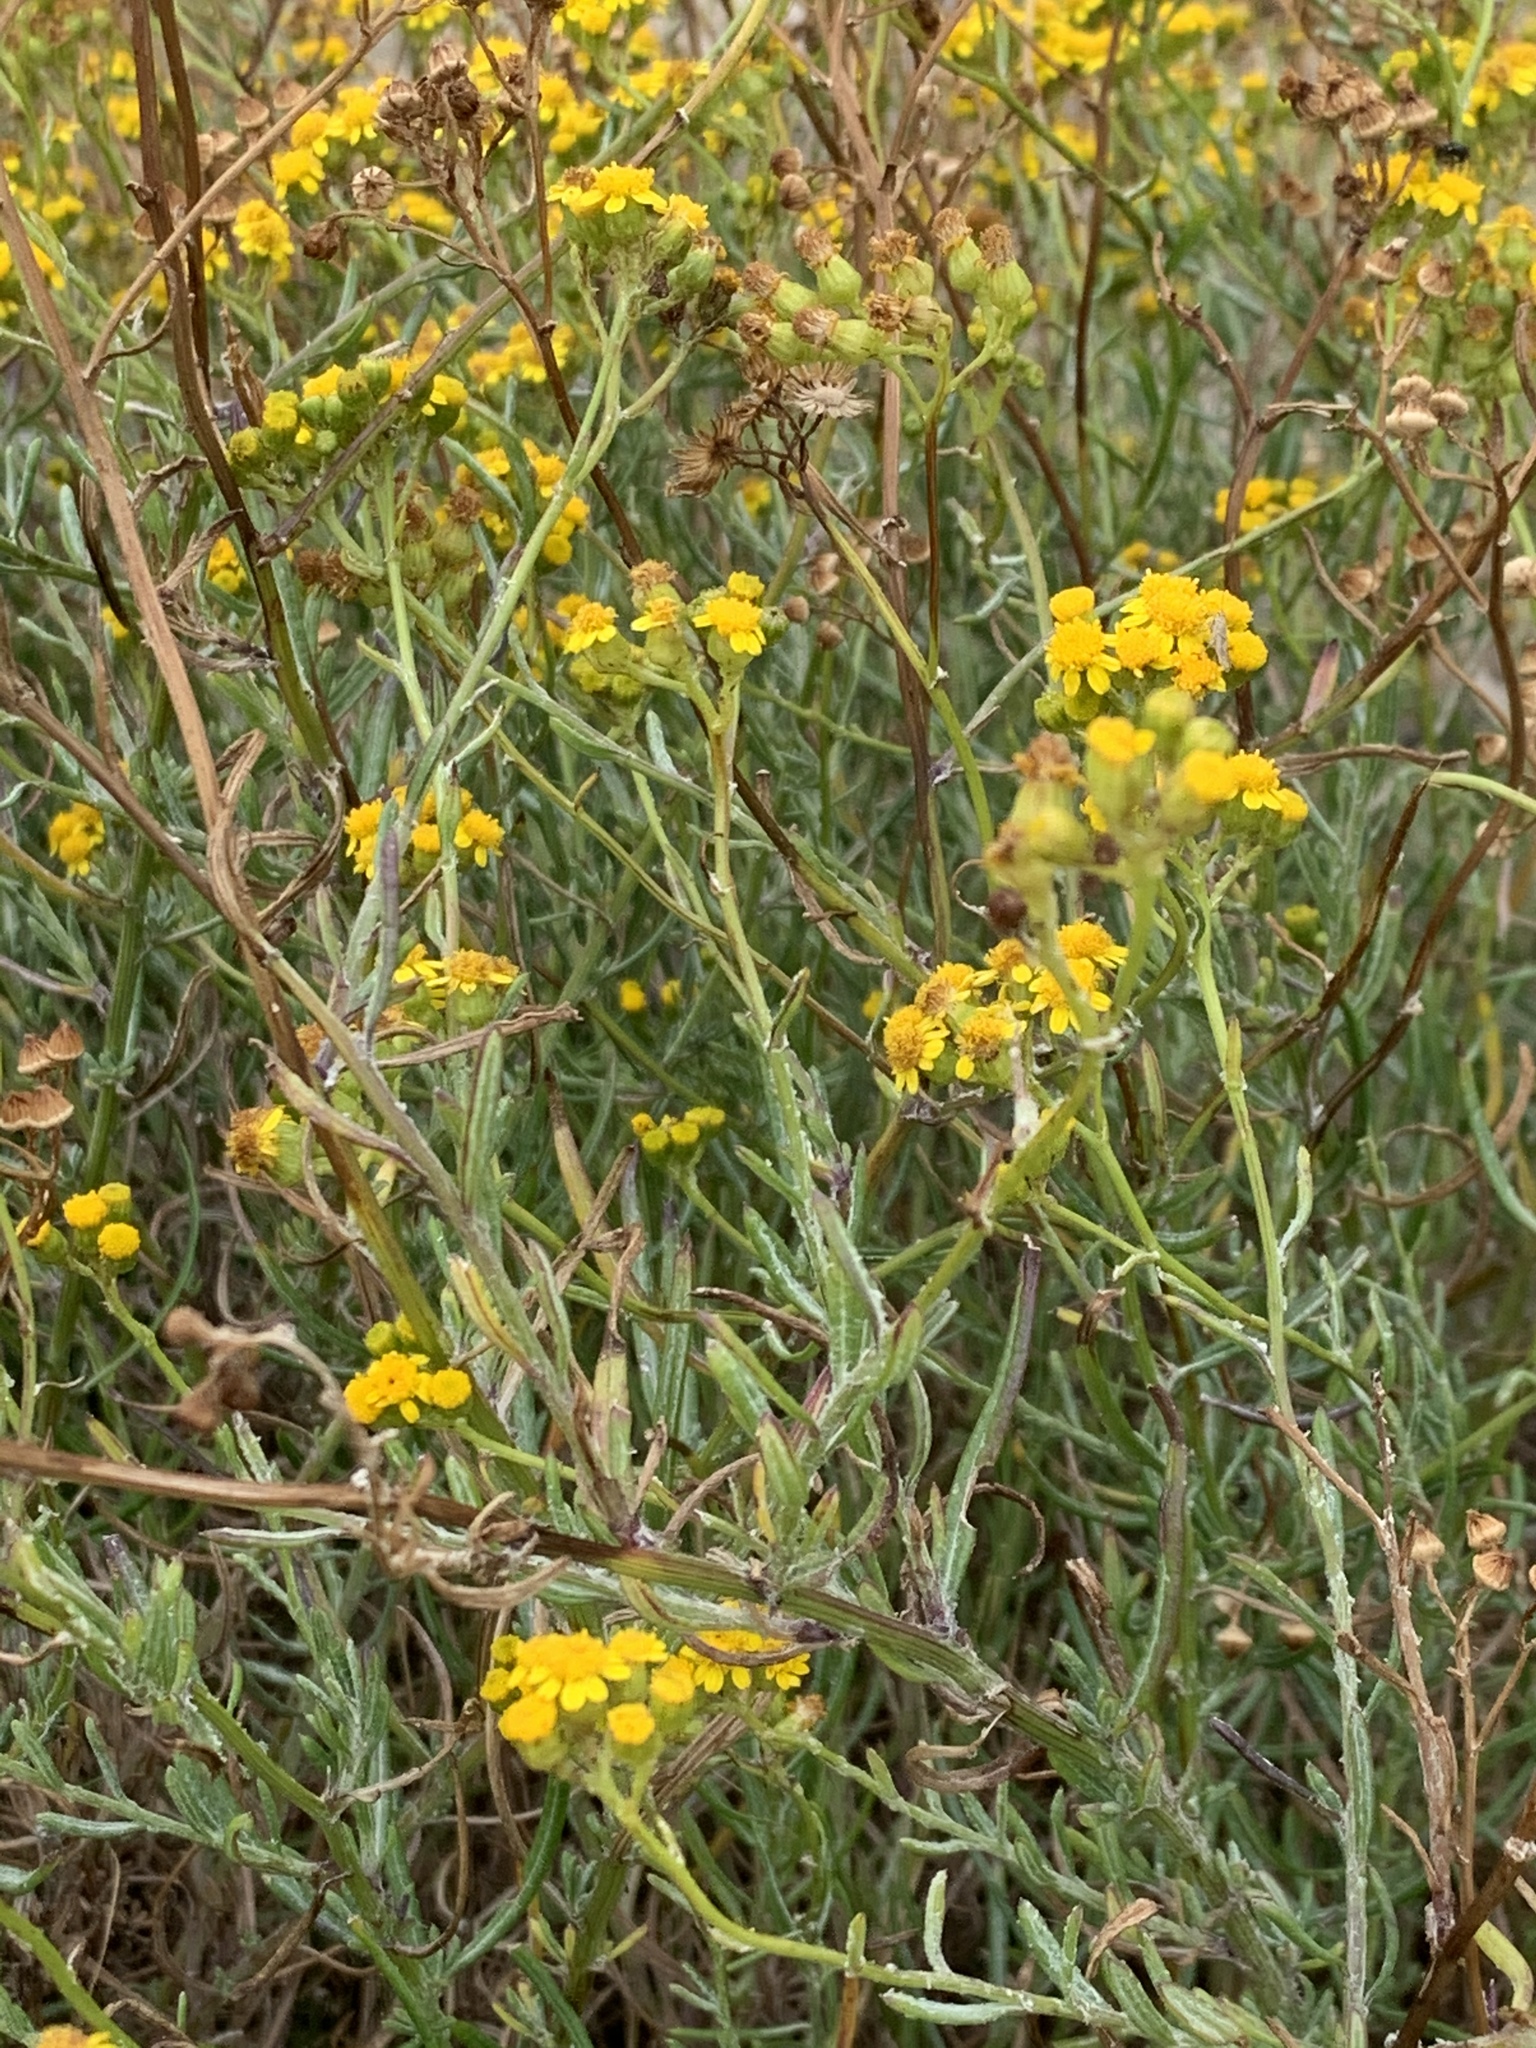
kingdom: Plantae
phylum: Tracheophyta
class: Magnoliopsida
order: Asterales
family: Asteraceae
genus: Senecio
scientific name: Senecio pterophorus
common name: Shoddy ragwort
